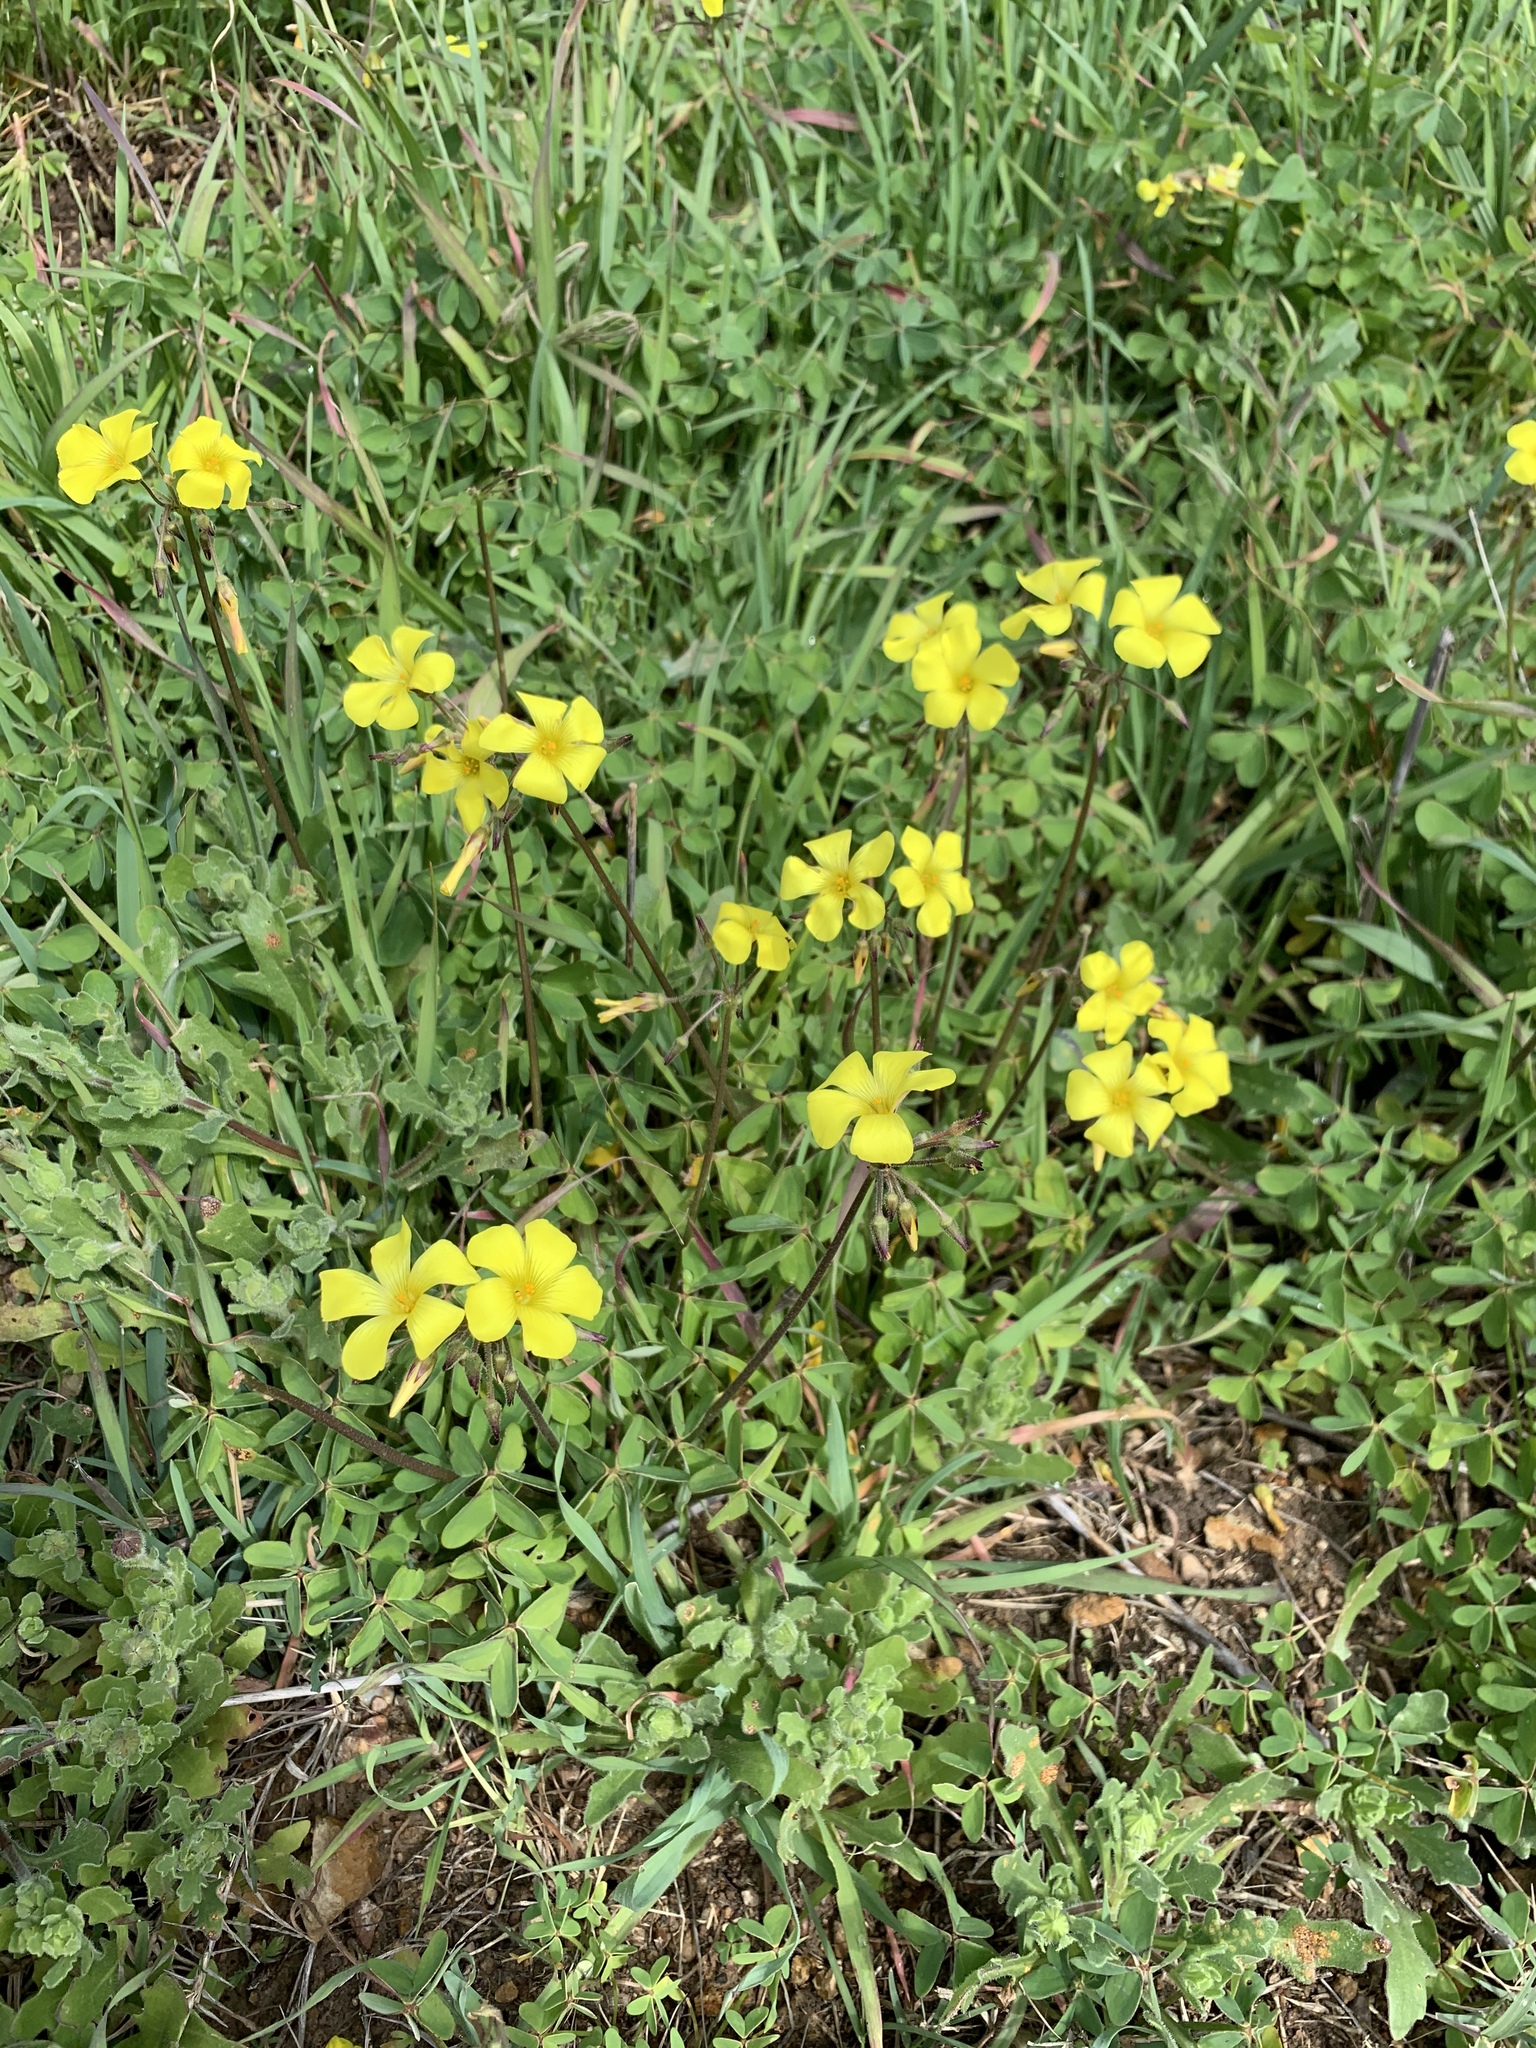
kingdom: Plantae
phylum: Tracheophyta
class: Magnoliopsida
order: Oxalidales
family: Oxalidaceae
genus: Oxalis
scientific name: Oxalis pes-caprae
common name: Bermuda-buttercup
